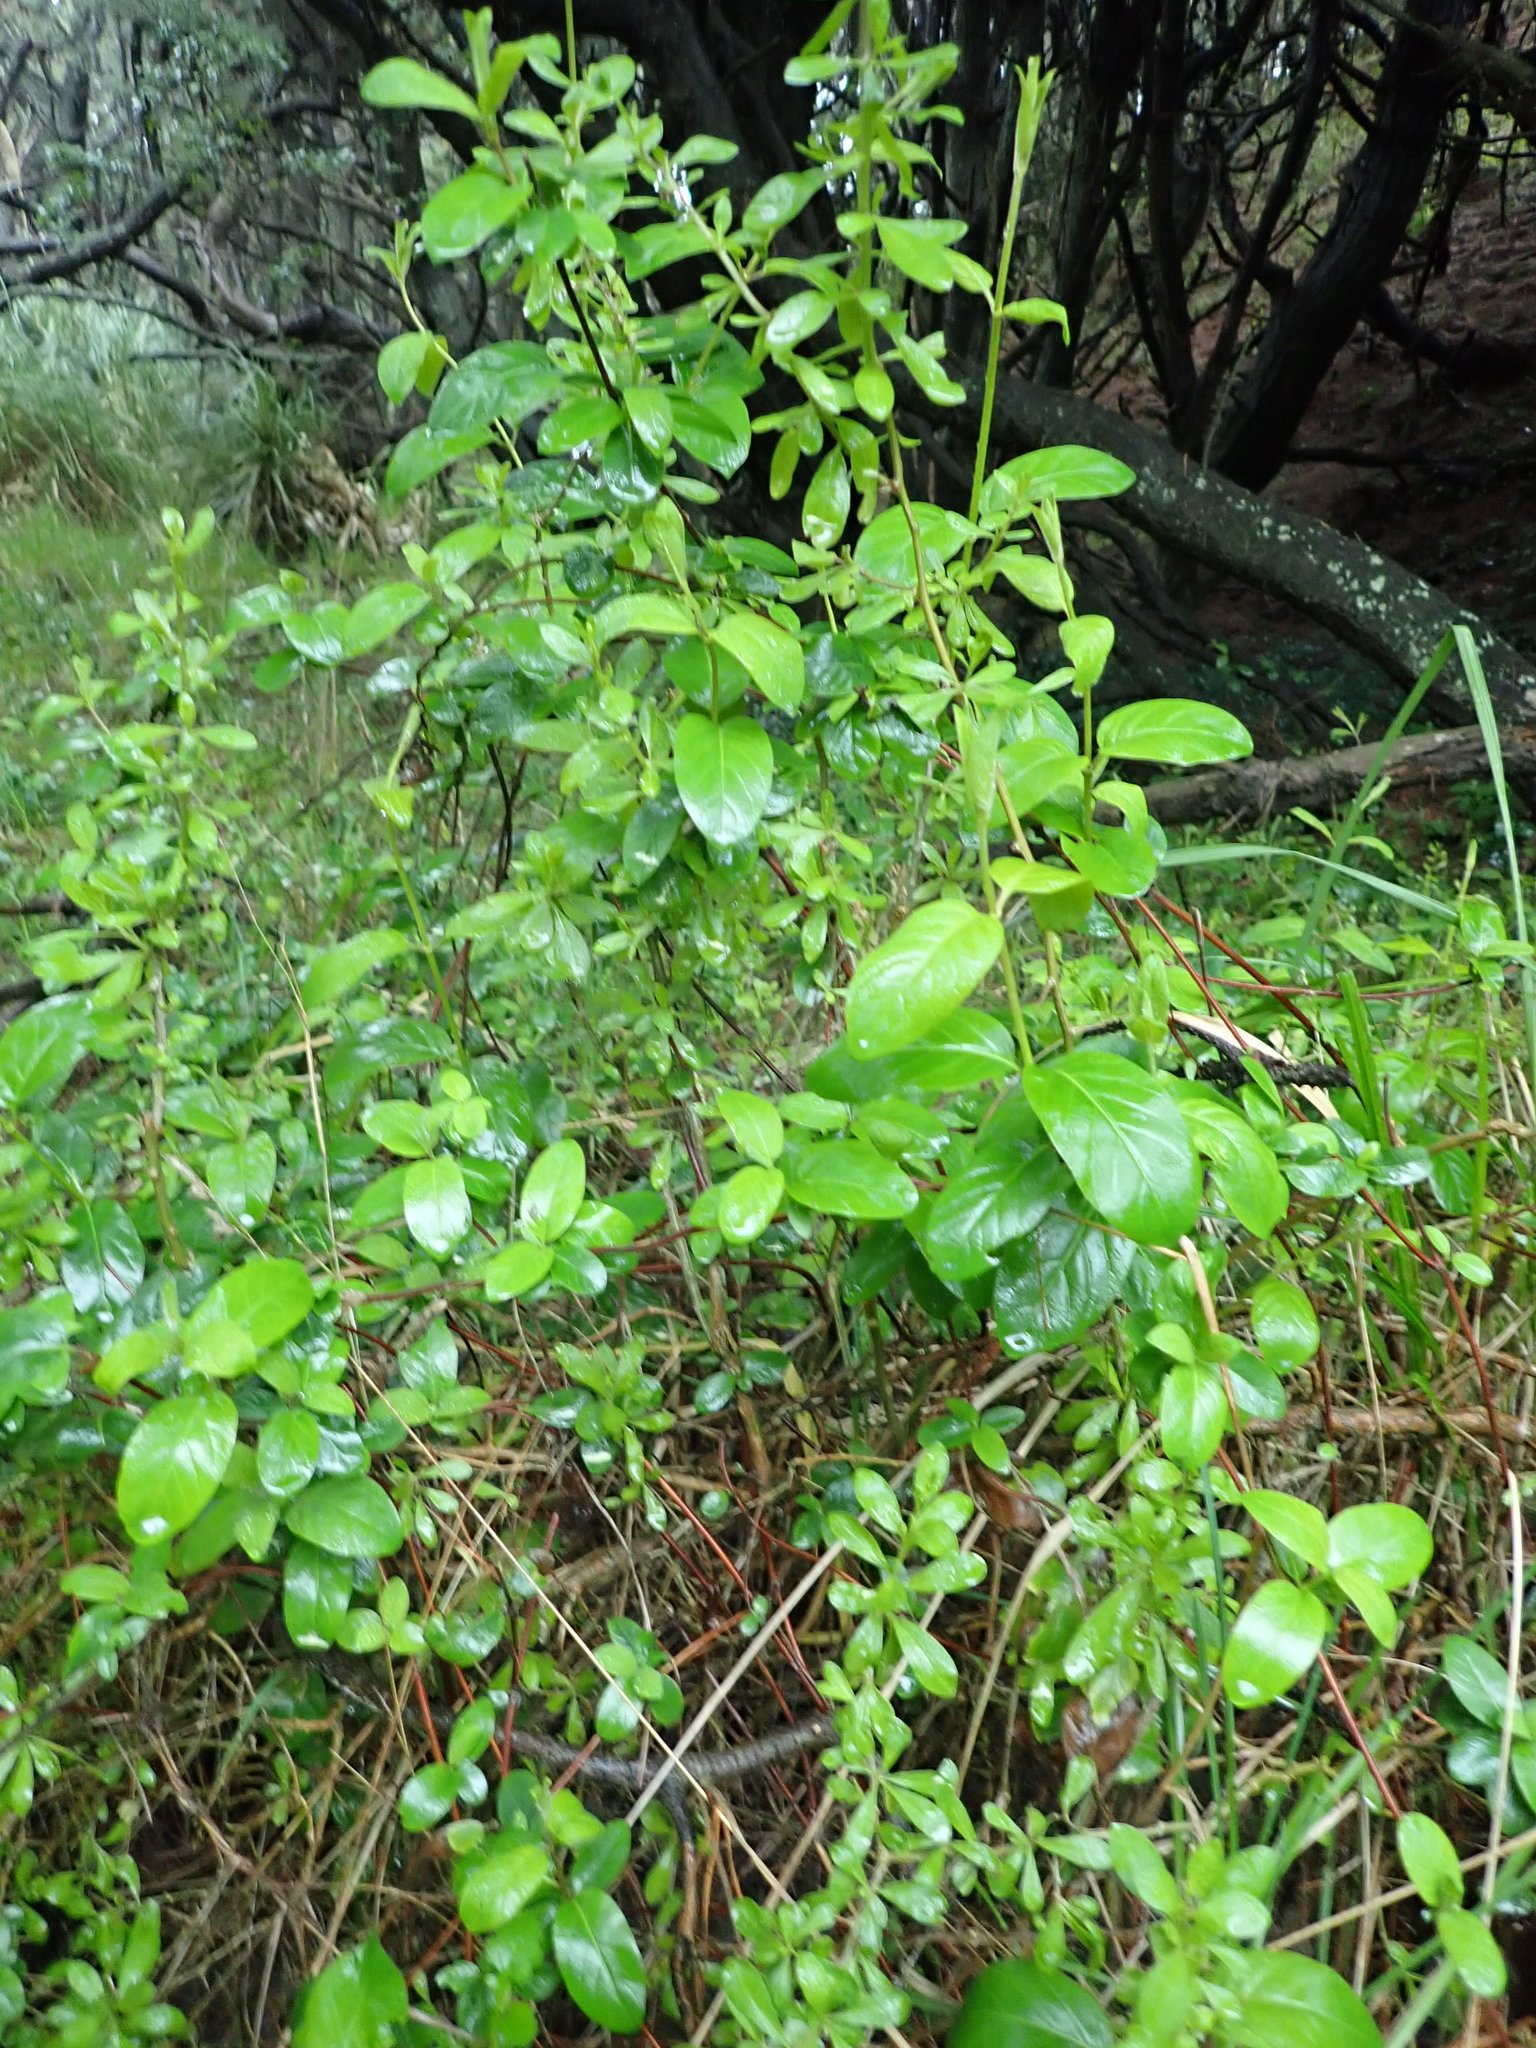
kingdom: Plantae
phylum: Tracheophyta
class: Magnoliopsida
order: Dipsacales
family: Caprifoliaceae
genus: Lonicera
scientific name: Lonicera japonica
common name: Japanese honeysuckle
